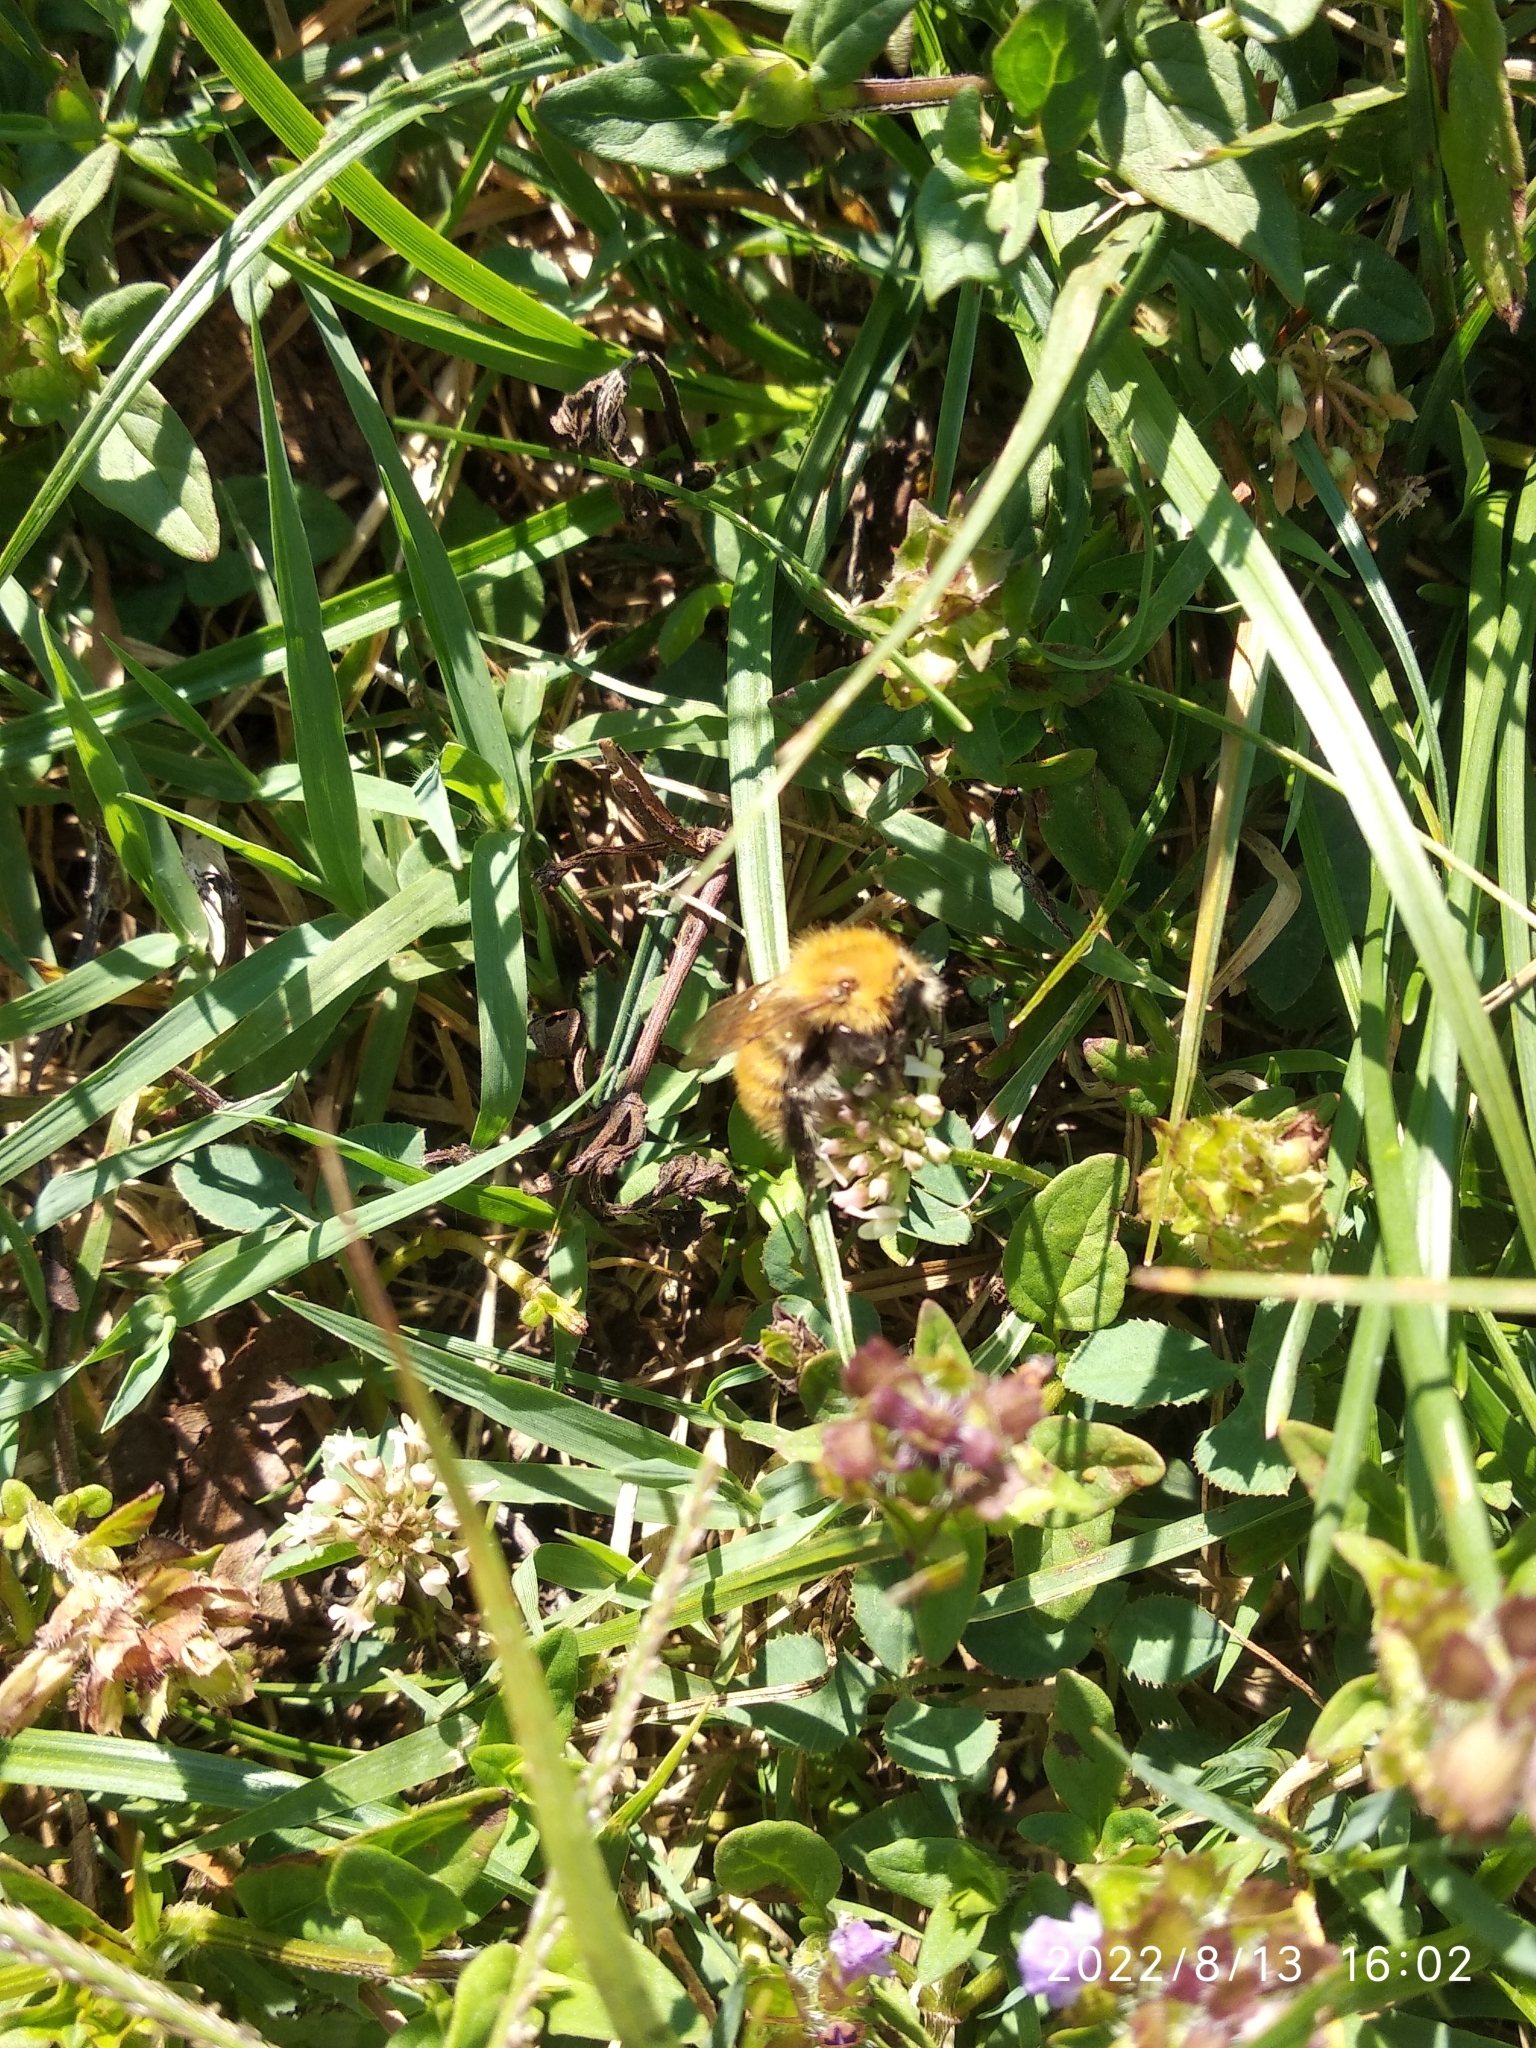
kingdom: Animalia
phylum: Arthropoda
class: Insecta
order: Hymenoptera
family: Apidae
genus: Bombus
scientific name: Bombus pascuorum
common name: Common carder bee
